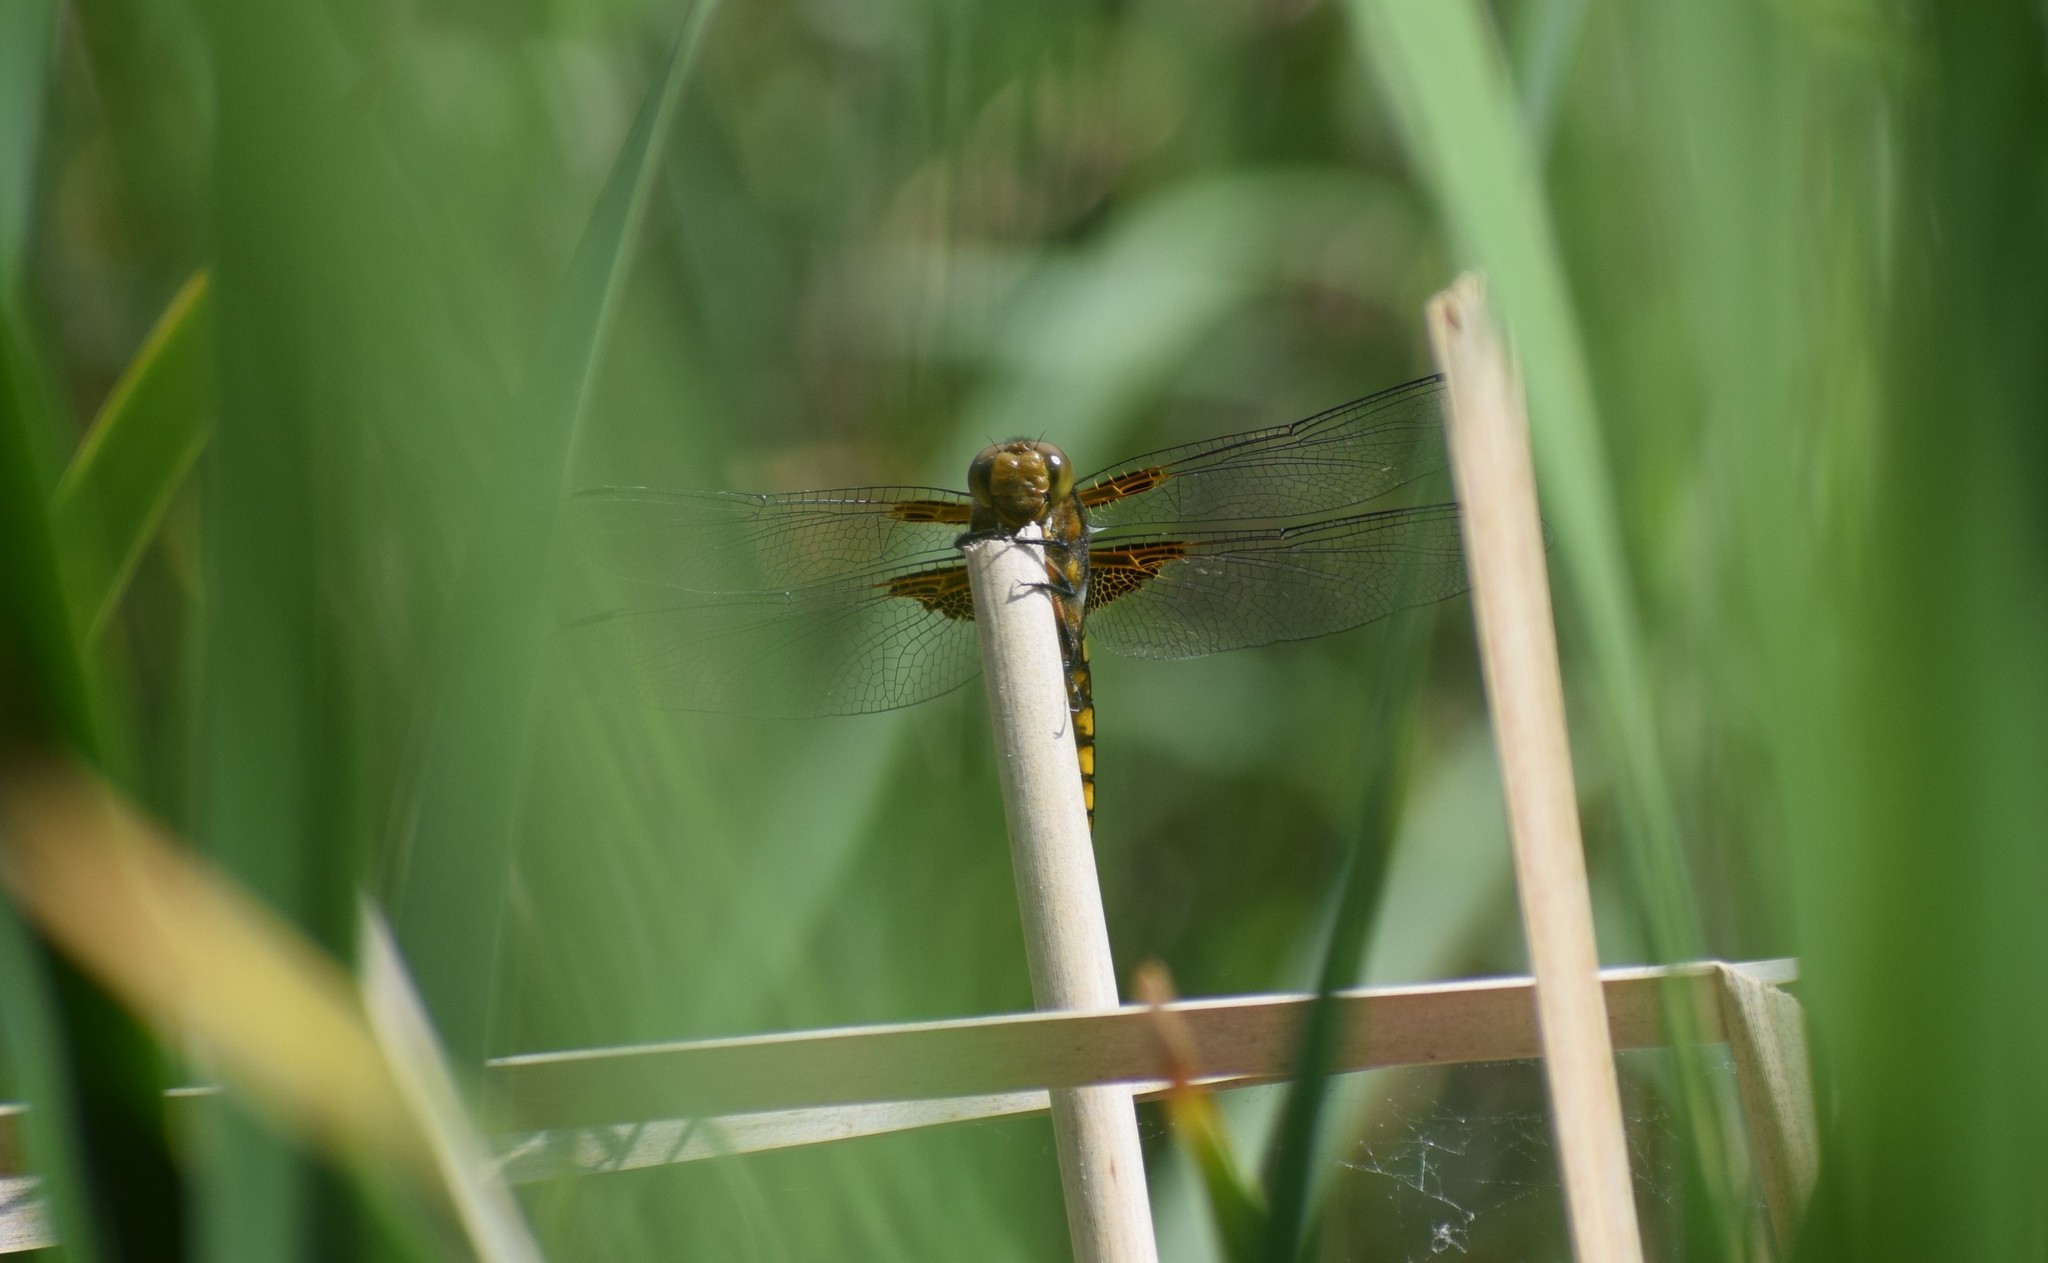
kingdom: Animalia
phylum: Arthropoda
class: Insecta
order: Odonata
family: Libellulidae
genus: Libellula
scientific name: Libellula depressa
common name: Broad-bodied chaser
